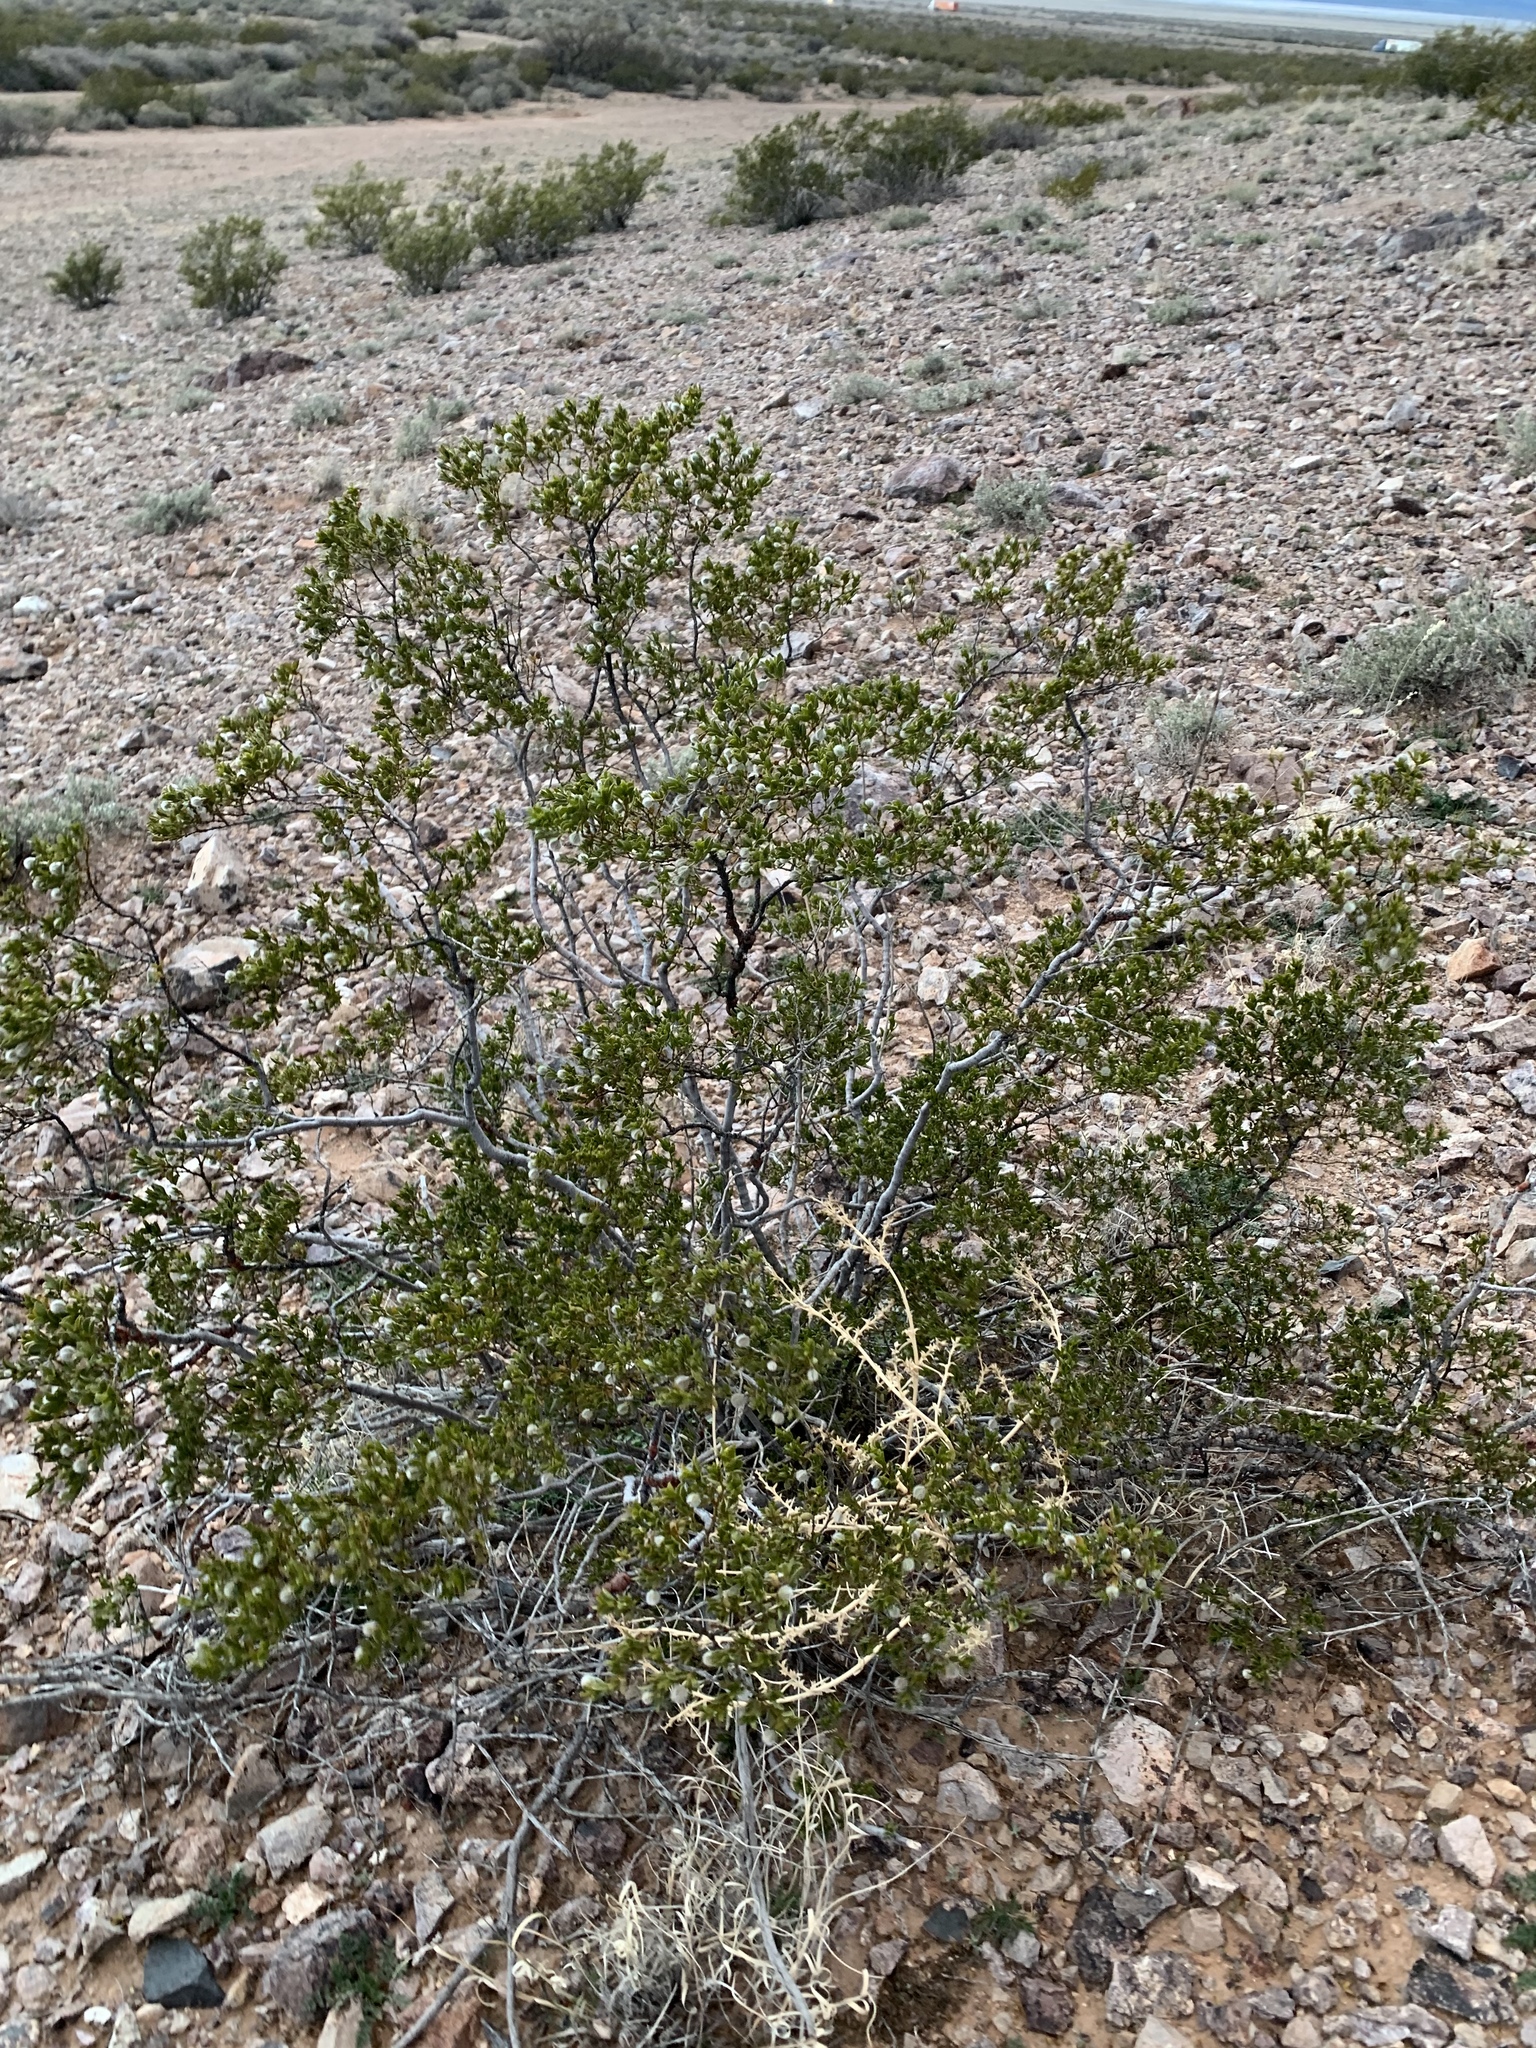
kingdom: Plantae
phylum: Tracheophyta
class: Magnoliopsida
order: Zygophyllales
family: Zygophyllaceae
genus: Larrea
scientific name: Larrea tridentata
